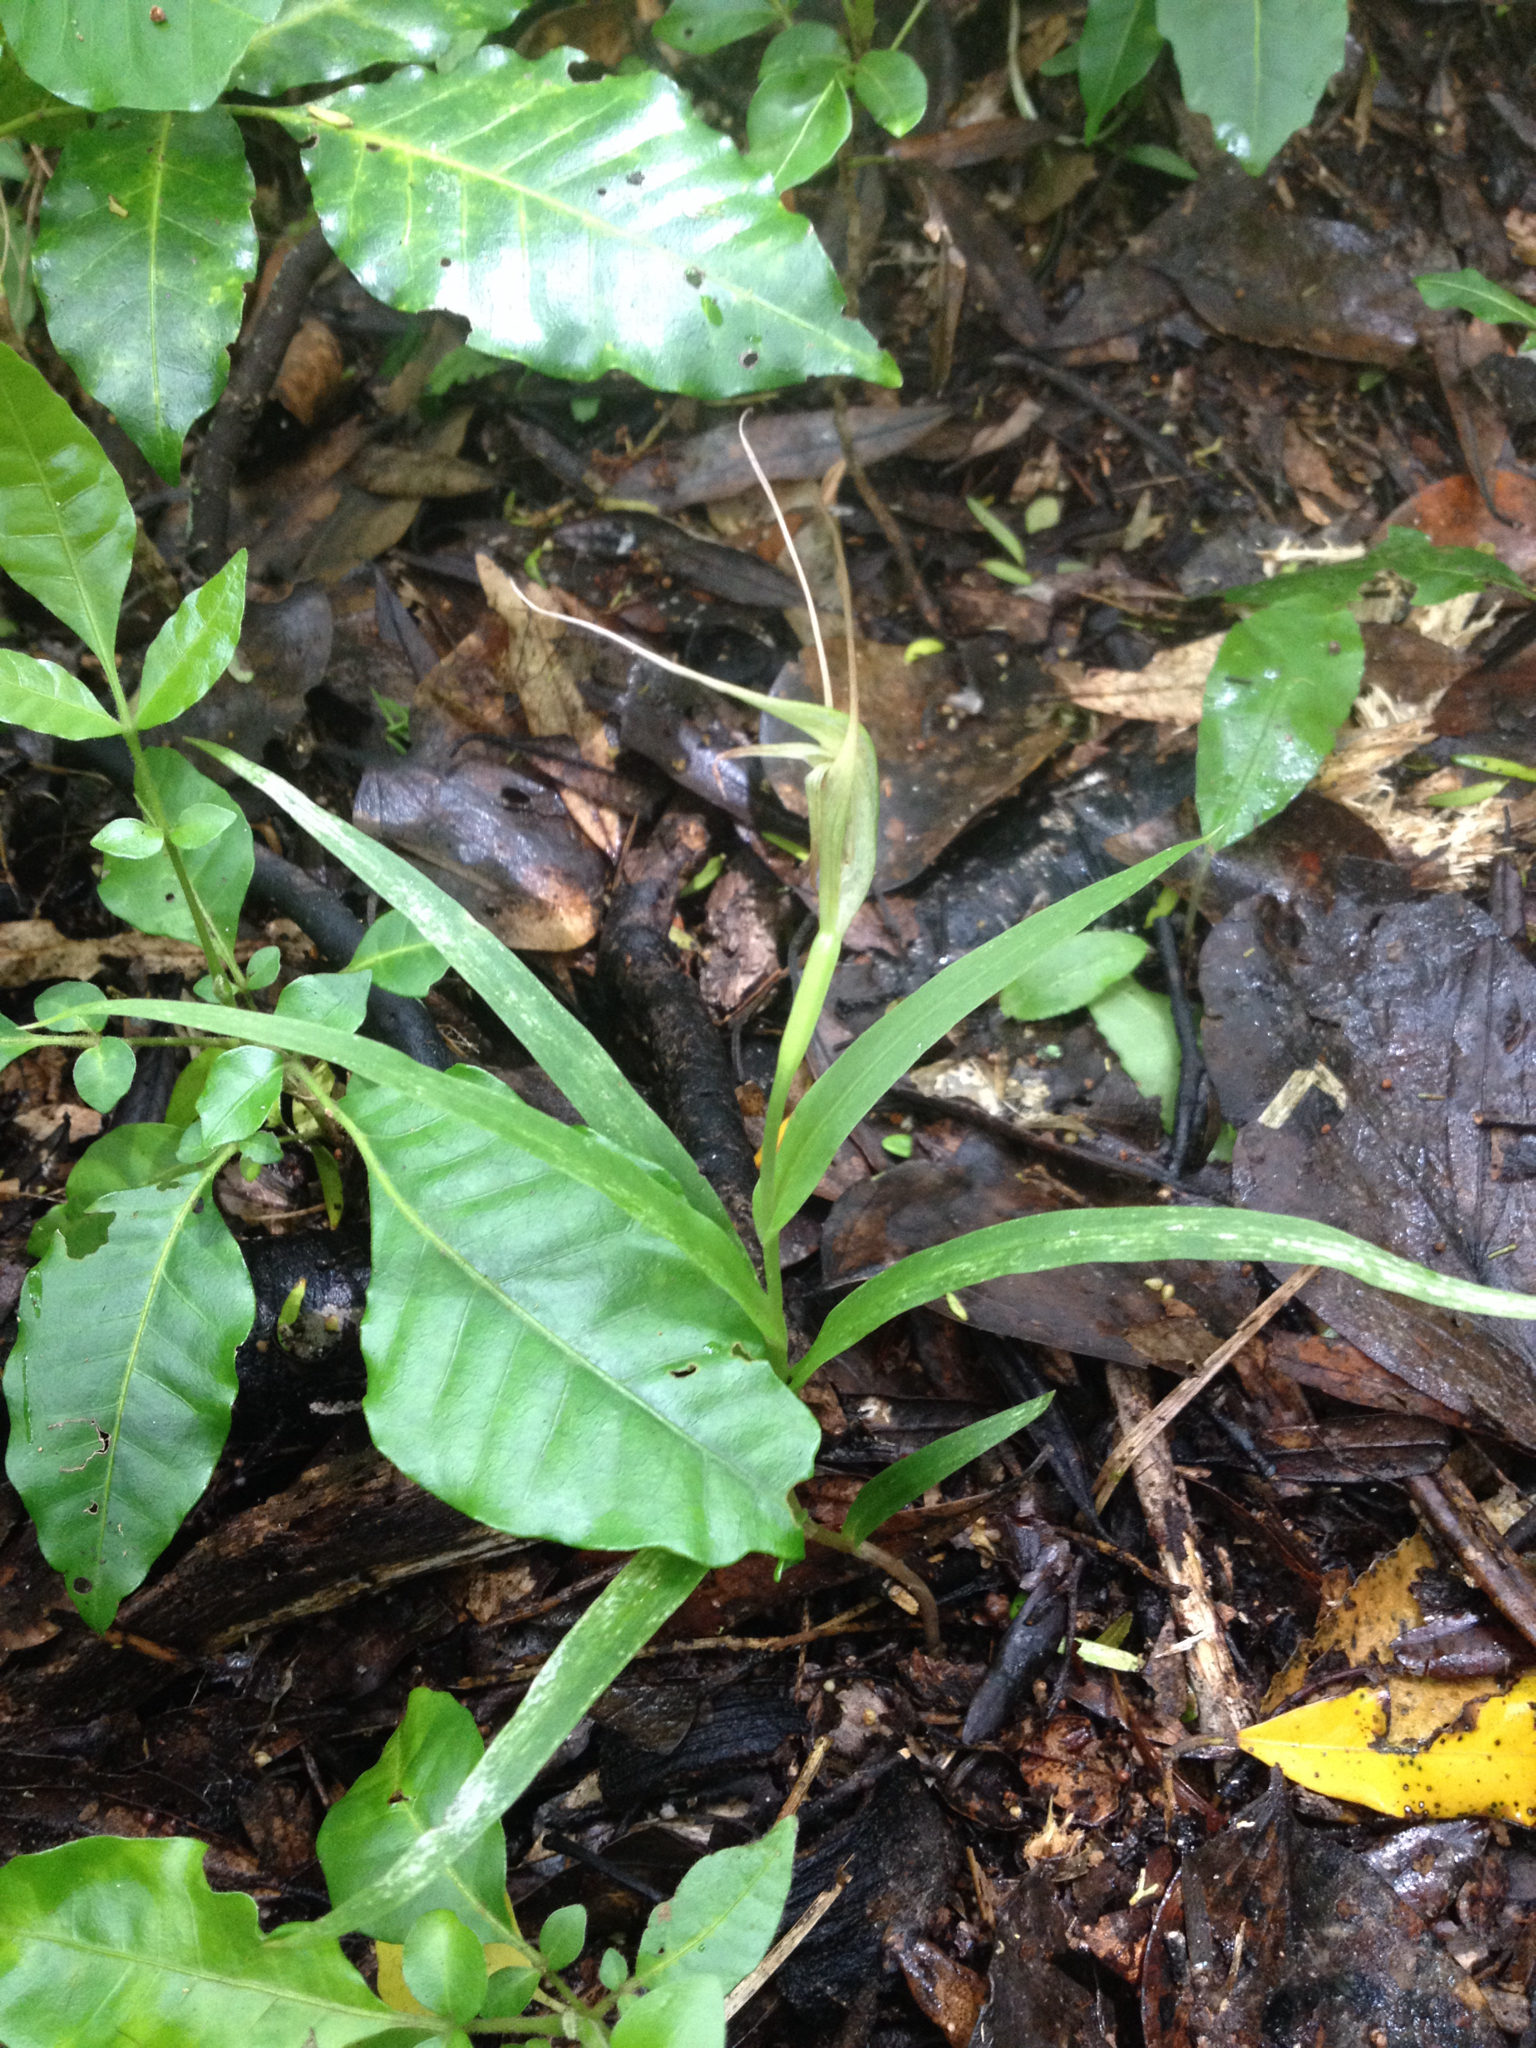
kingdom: Plantae
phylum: Tracheophyta
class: Liliopsida
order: Asparagales
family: Orchidaceae
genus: Pterostylis
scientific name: Pterostylis banksii
